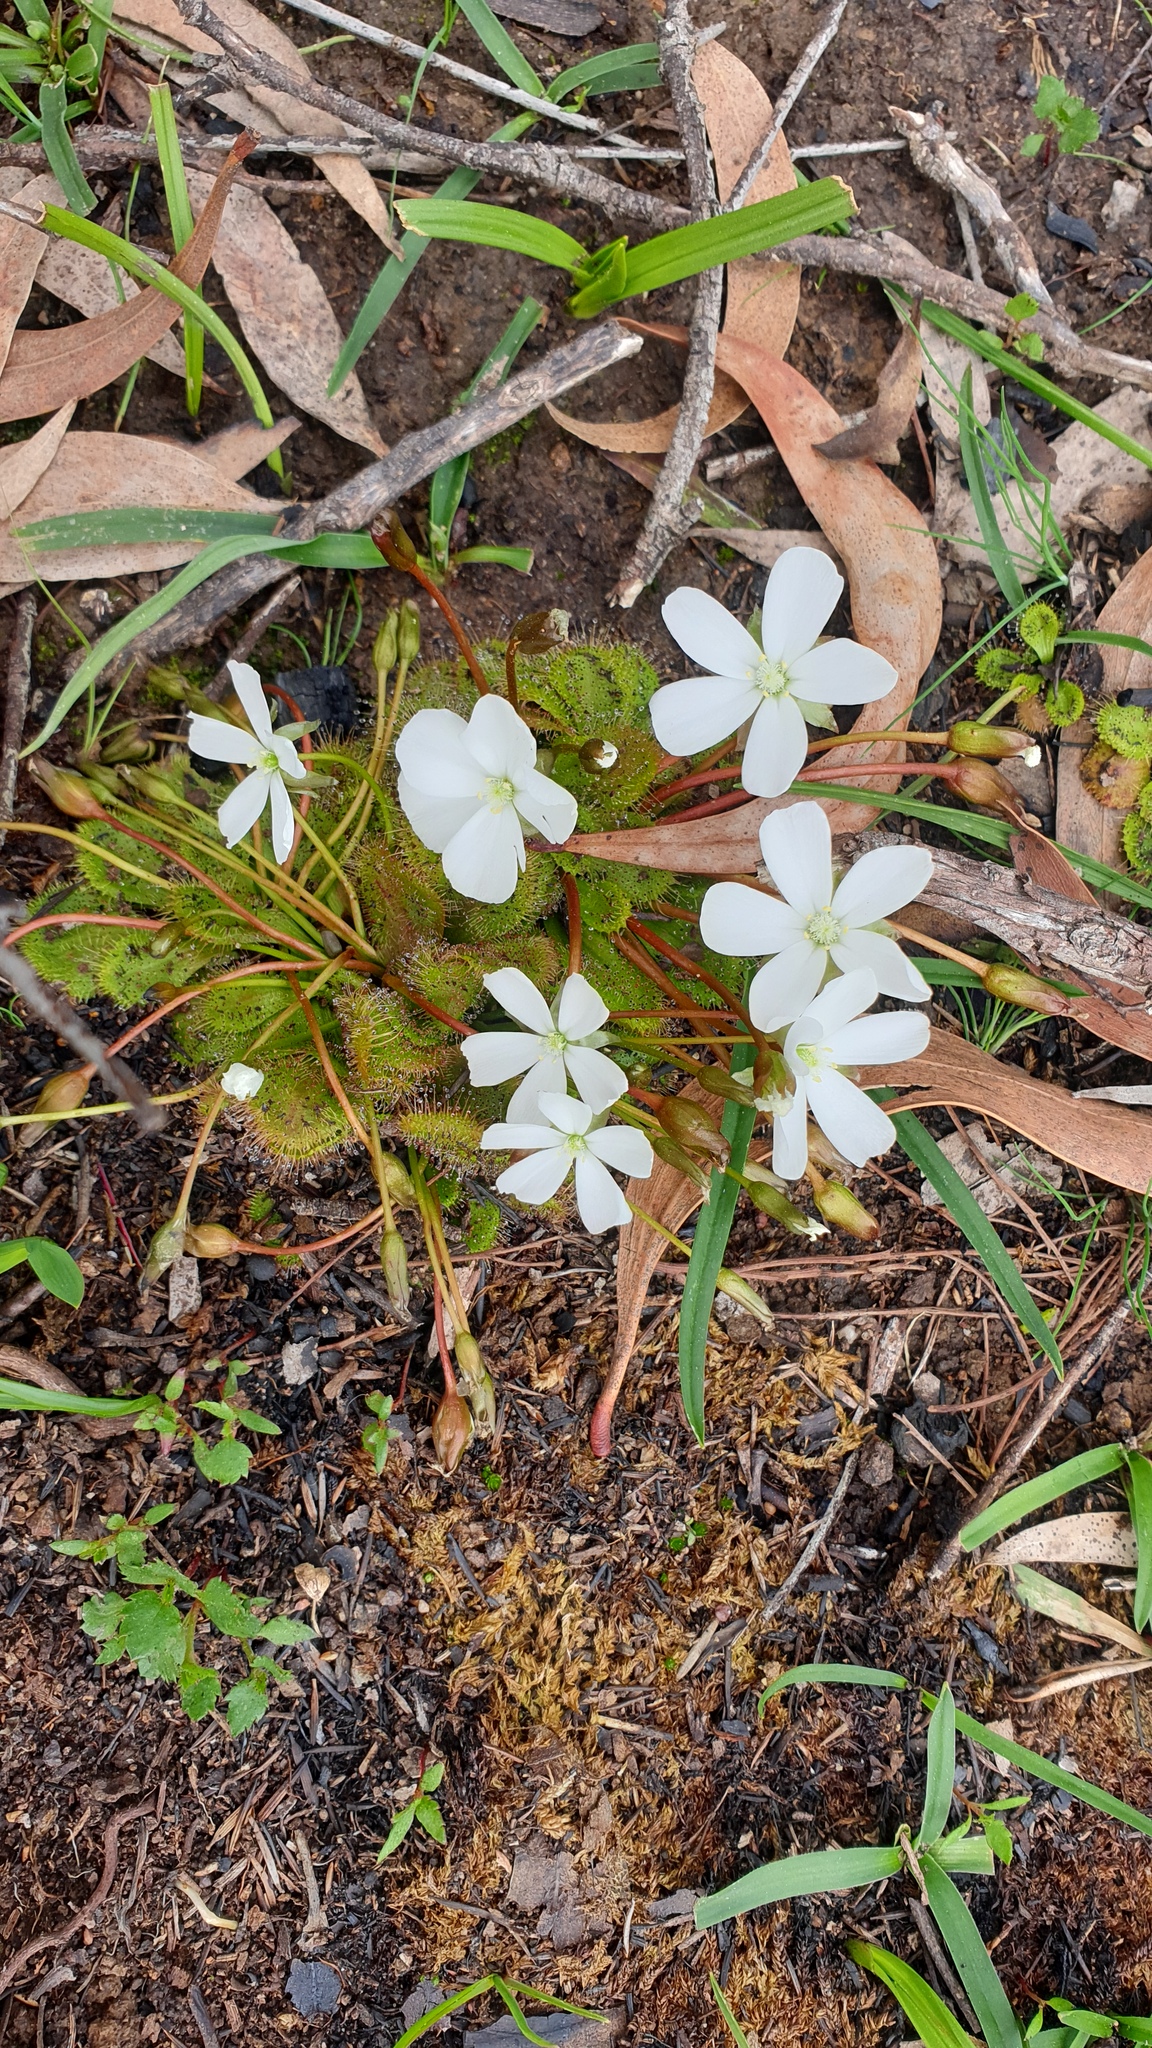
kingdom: Plantae
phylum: Tracheophyta
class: Magnoliopsida
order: Caryophyllales
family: Droseraceae
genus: Drosera
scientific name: Drosera whittakeri
